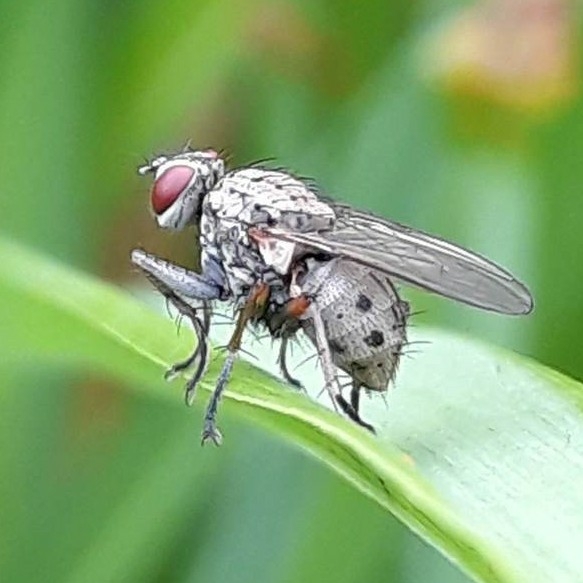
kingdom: Animalia
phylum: Arthropoda
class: Insecta
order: Diptera
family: Muscidae
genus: Coenosia
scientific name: Coenosia tigrina
